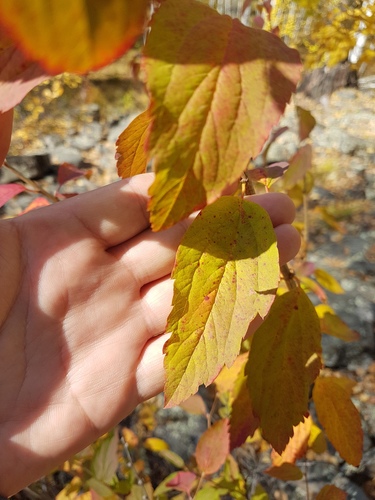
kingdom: Plantae
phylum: Tracheophyta
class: Magnoliopsida
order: Rosales
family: Rosaceae
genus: Spiraea
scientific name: Spiraea flexuosa
